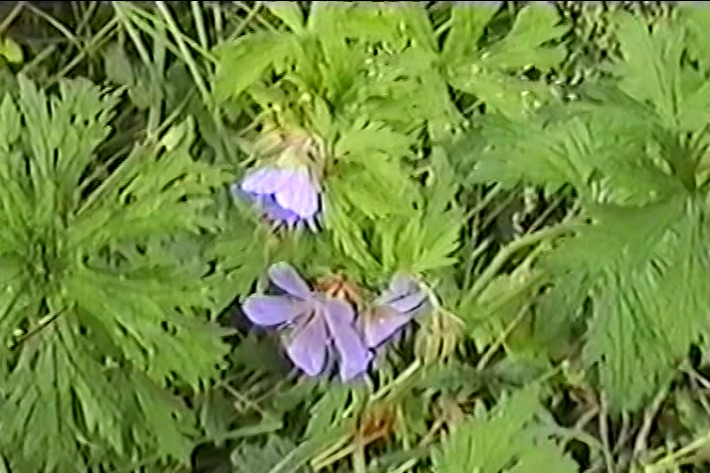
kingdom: Plantae
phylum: Tracheophyta
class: Magnoliopsida
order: Geraniales
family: Geraniaceae
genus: Geranium
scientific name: Geranium pratense
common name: Meadow crane's-bill
